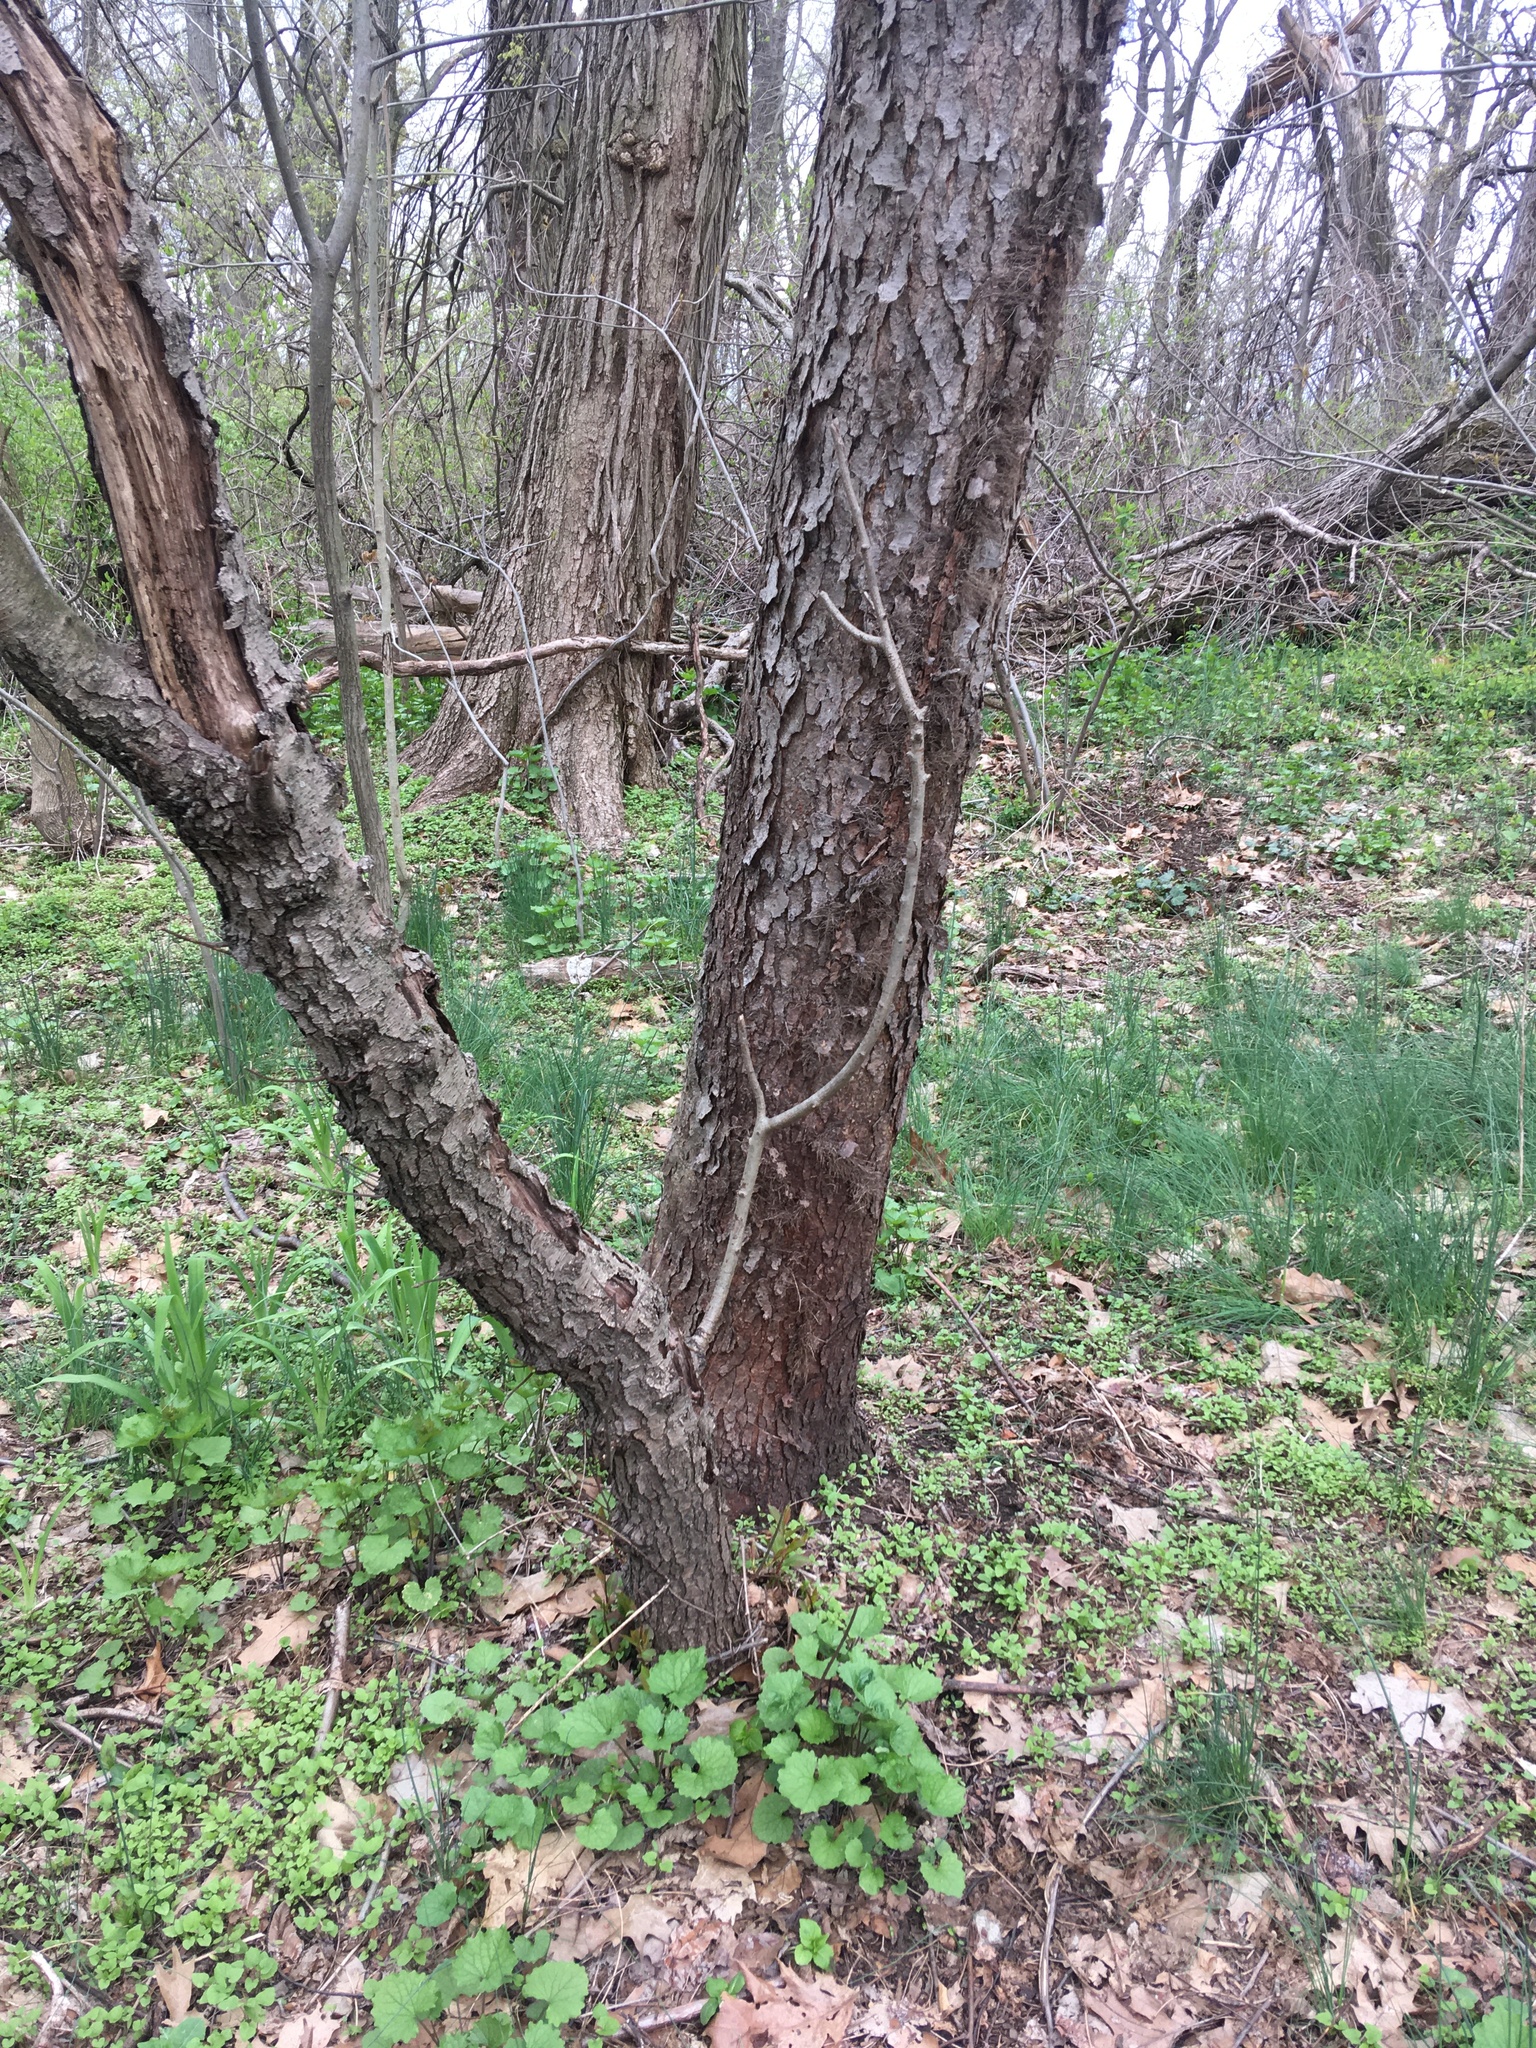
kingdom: Plantae
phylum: Tracheophyta
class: Magnoliopsida
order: Rosales
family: Rosaceae
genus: Prunus
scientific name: Prunus serotina
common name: Black cherry
